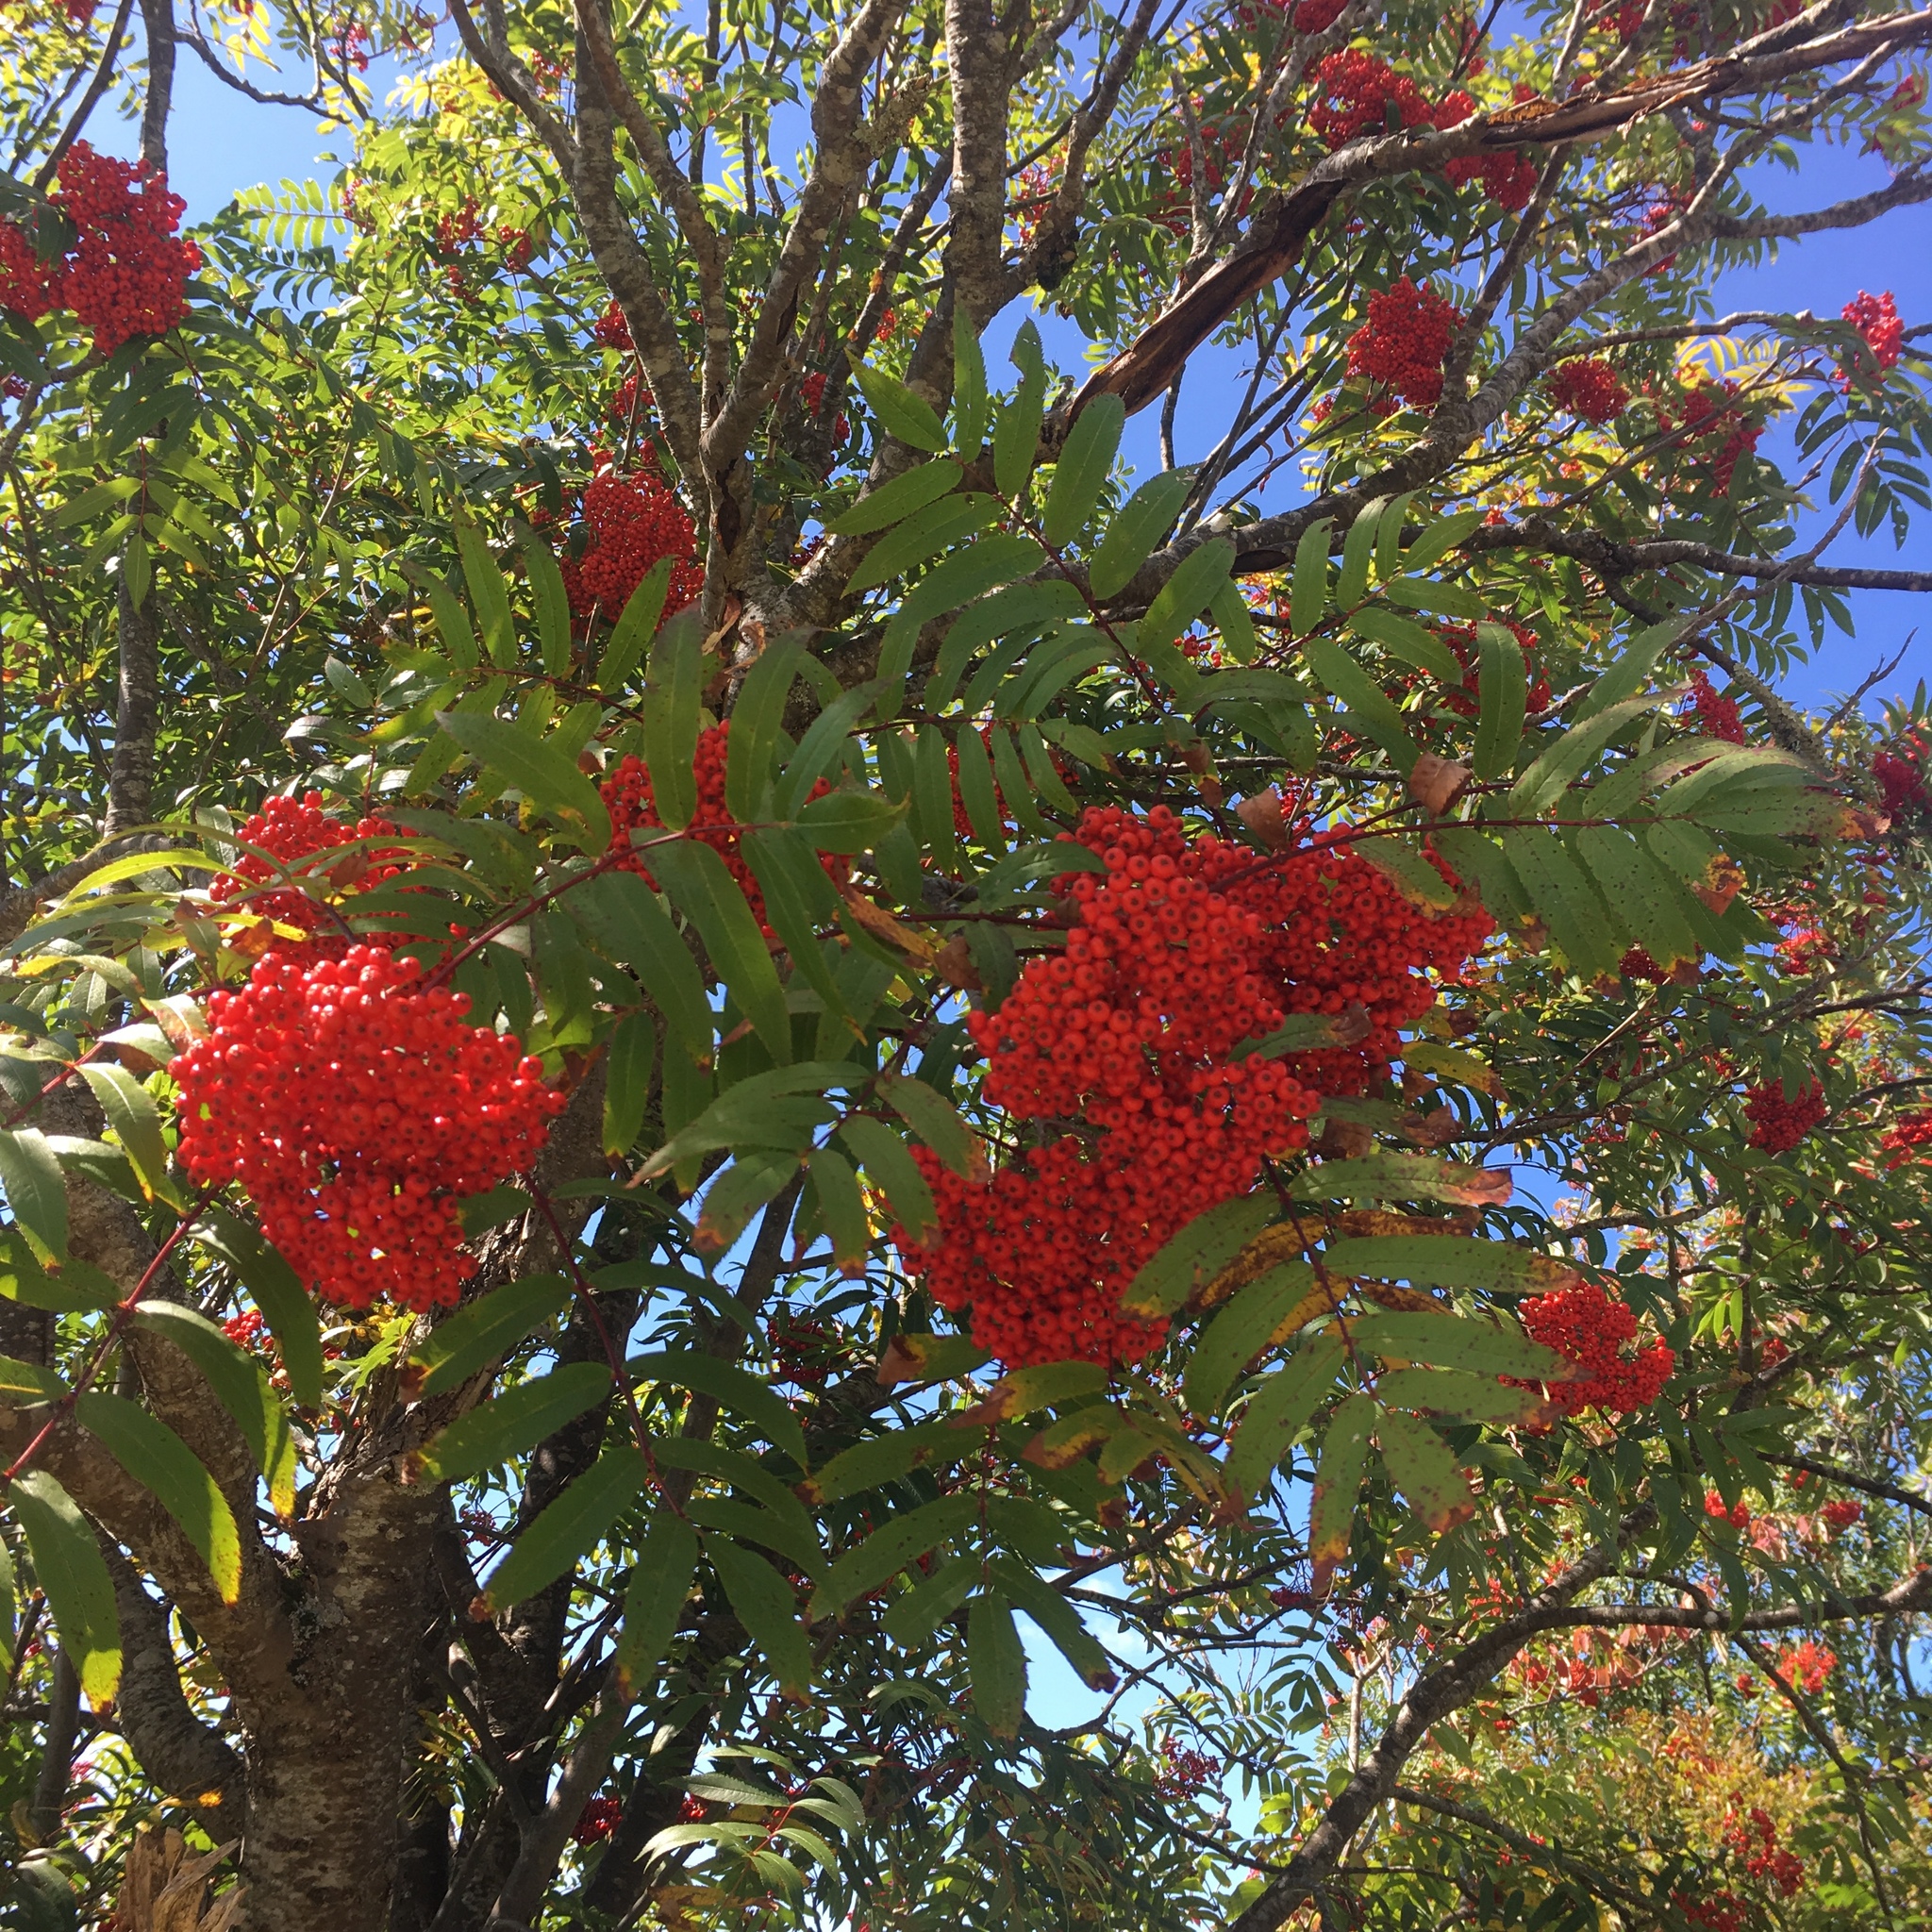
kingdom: Plantae
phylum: Tracheophyta
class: Magnoliopsida
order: Rosales
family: Rosaceae
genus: Sorbus
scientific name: Sorbus americana
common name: American mountain-ash
